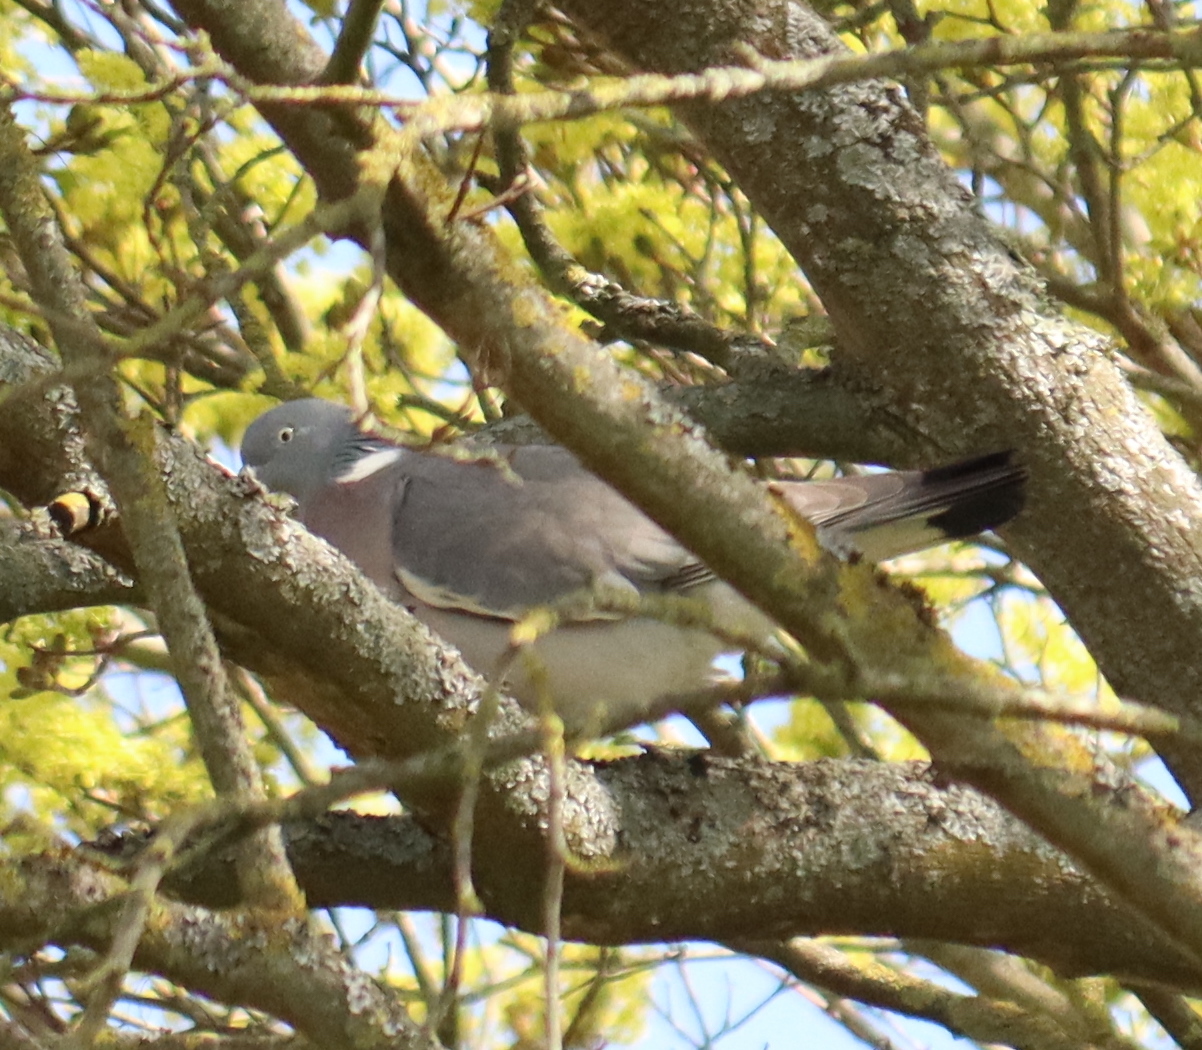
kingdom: Animalia
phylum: Chordata
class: Aves
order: Columbiformes
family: Columbidae
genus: Columba
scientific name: Columba palumbus
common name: Common wood pigeon
